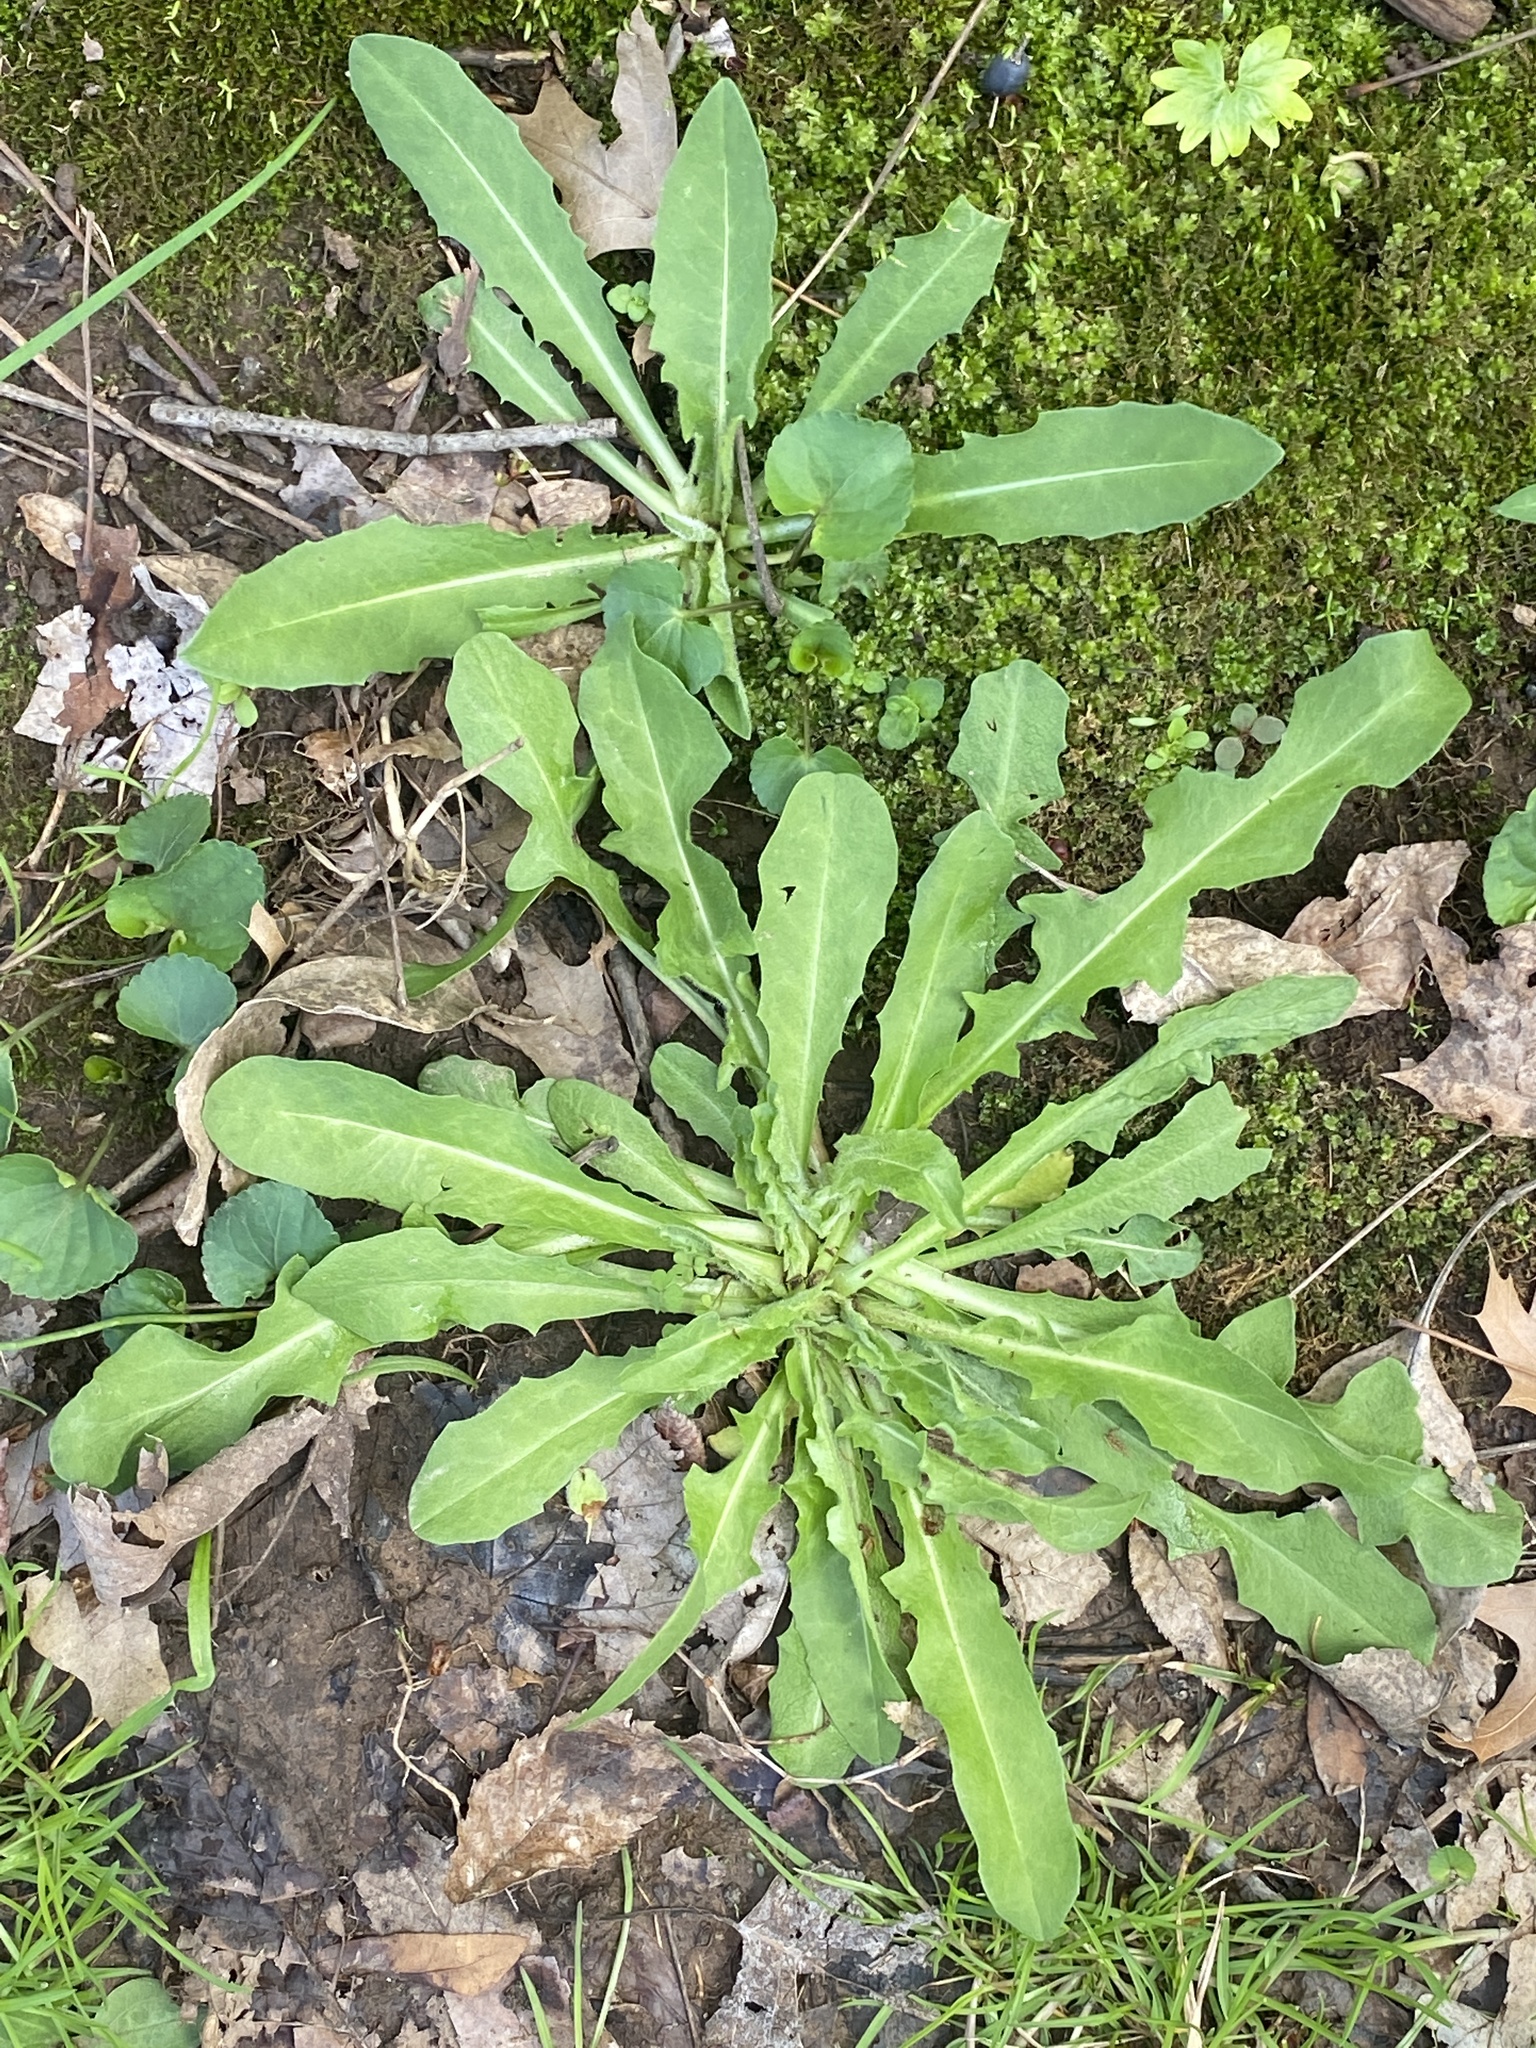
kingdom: Plantae
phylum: Tracheophyta
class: Magnoliopsida
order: Asterales
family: Asteraceae
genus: Cichorium
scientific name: Cichorium intybus
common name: Chicory
